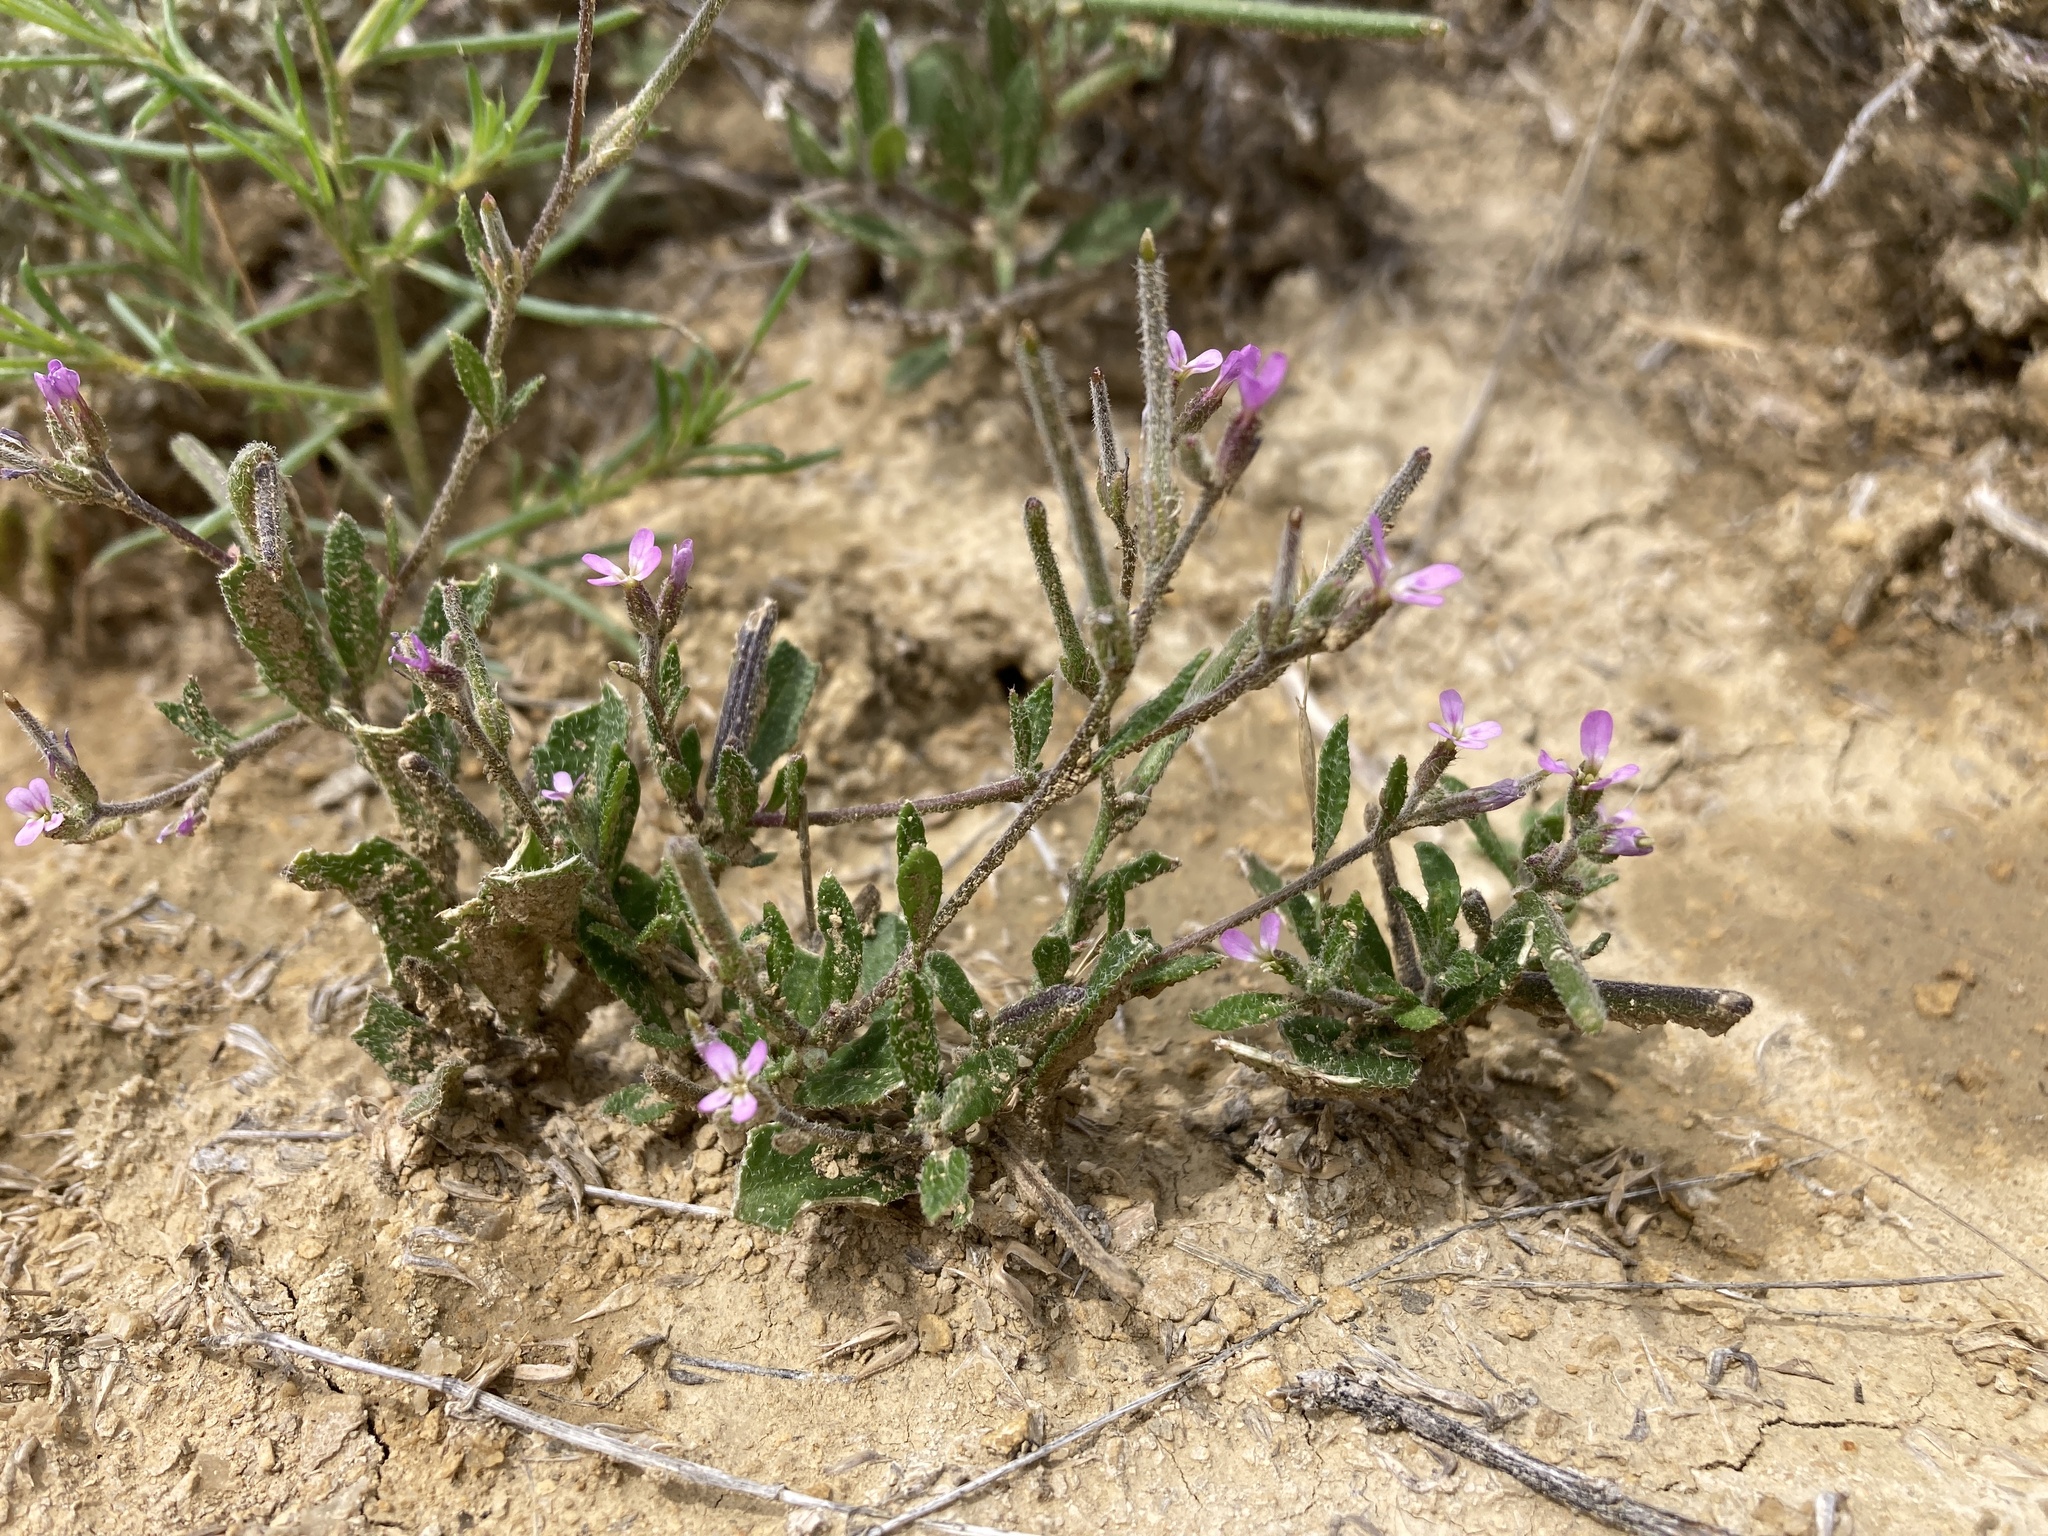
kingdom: Plantae
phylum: Tracheophyta
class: Magnoliopsida
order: Brassicales
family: Brassicaceae
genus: Strigosella
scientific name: Strigosella africana
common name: African mustard
